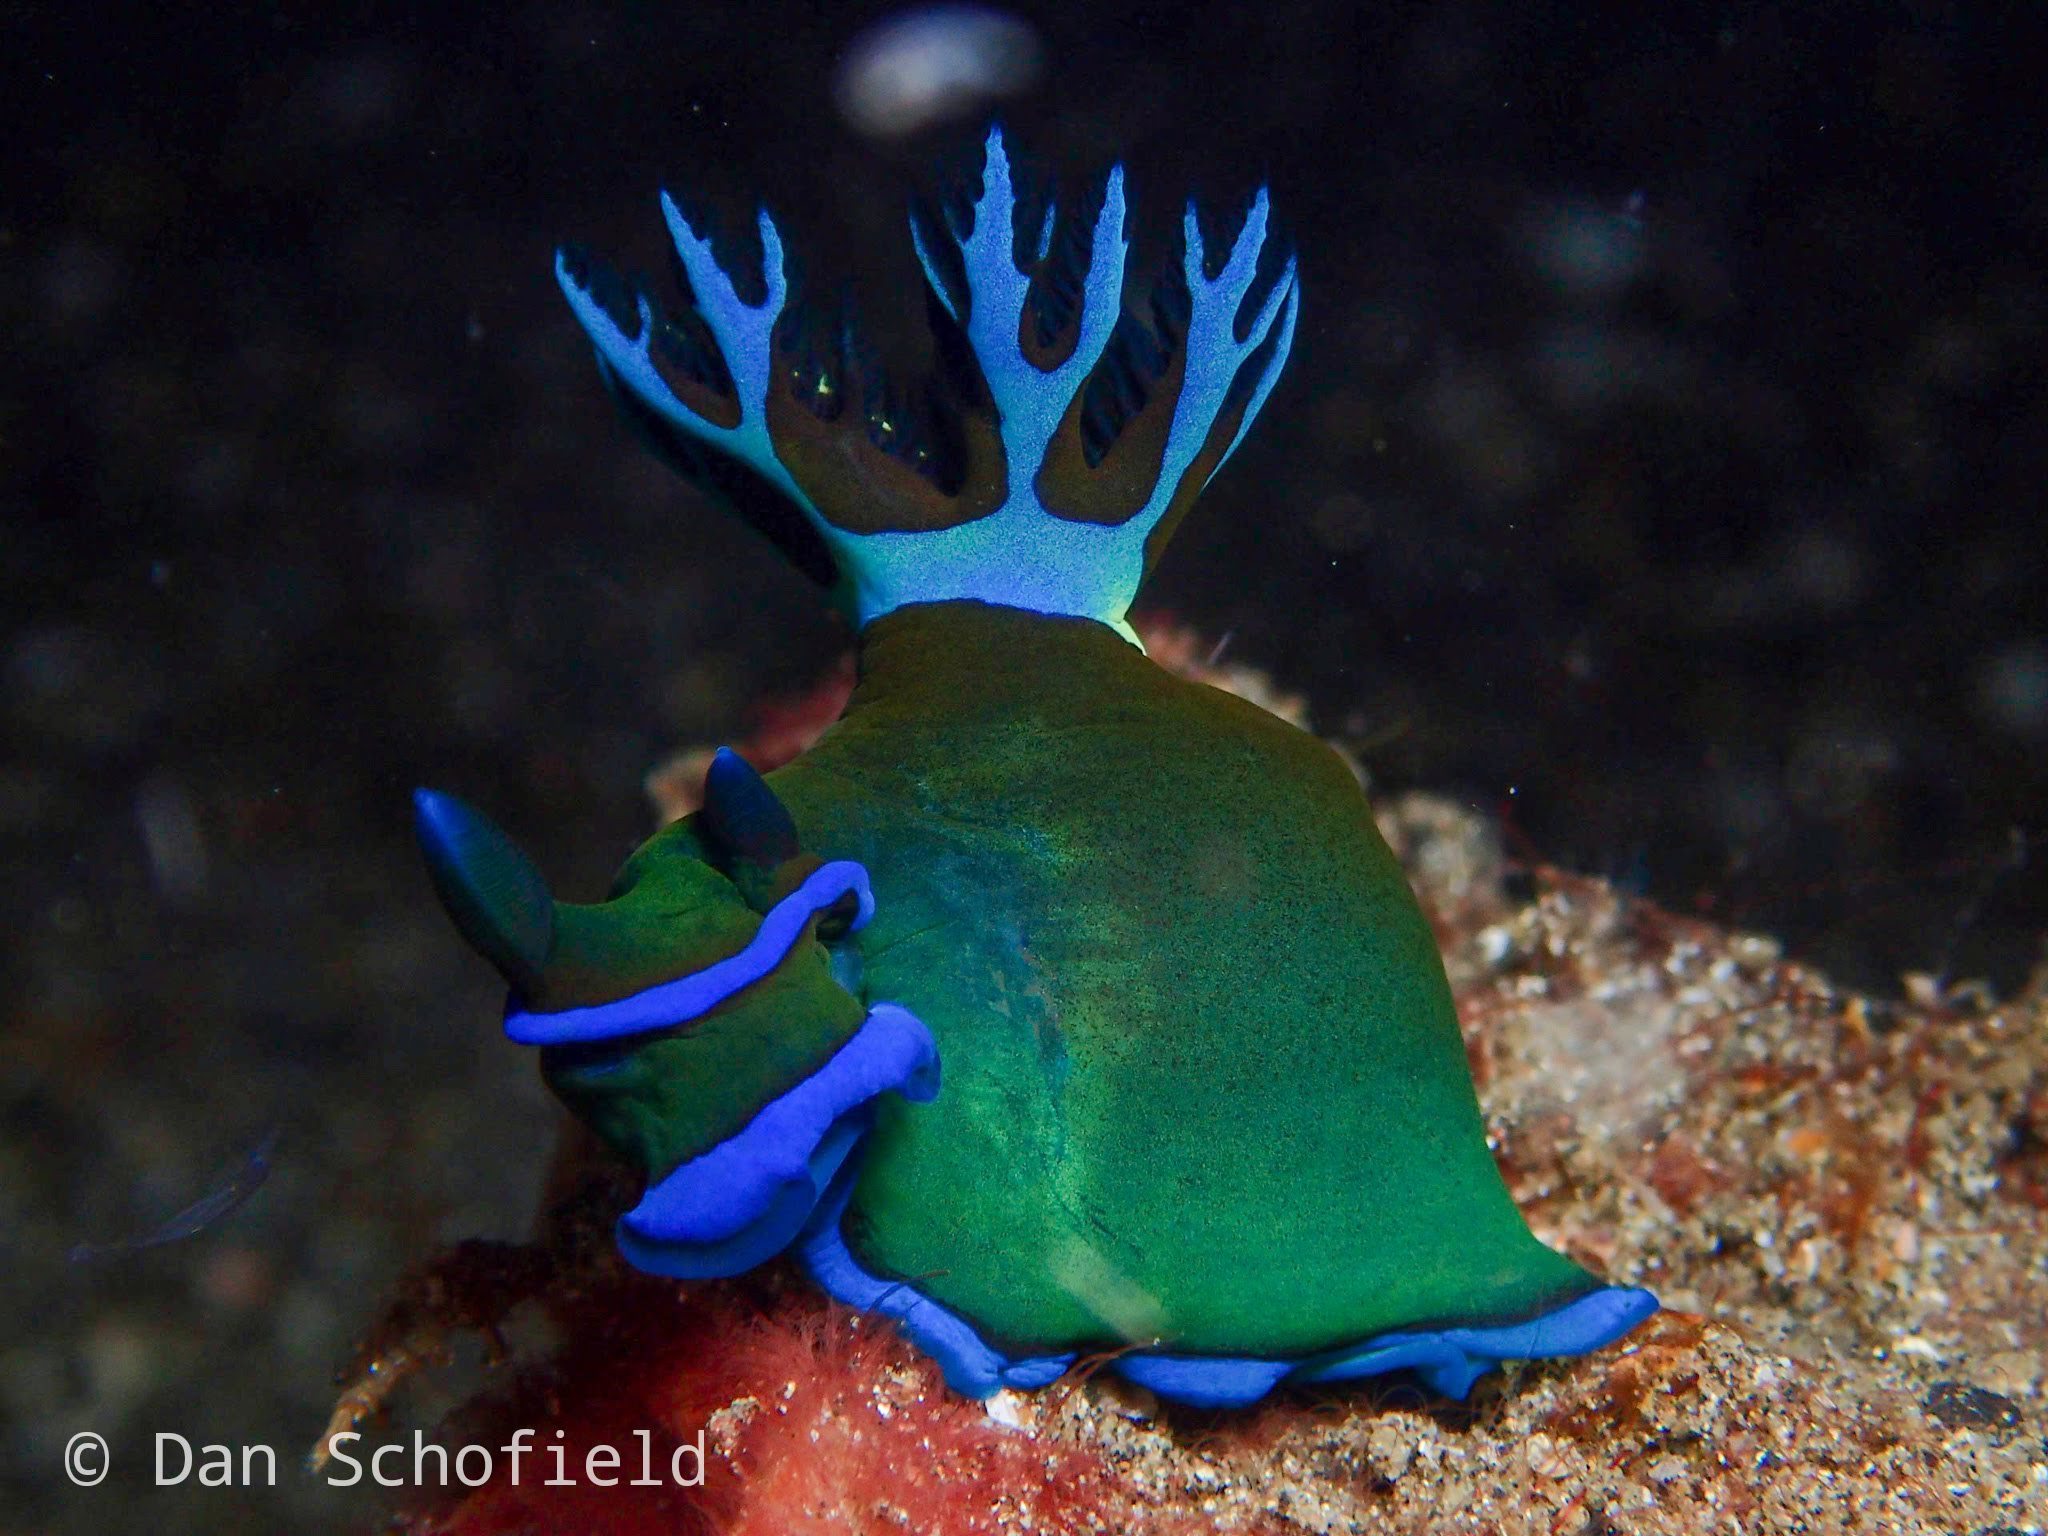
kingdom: Animalia
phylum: Mollusca
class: Gastropoda
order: Nudibranchia
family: Polyceridae
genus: Tambja
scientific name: Tambja morosa
